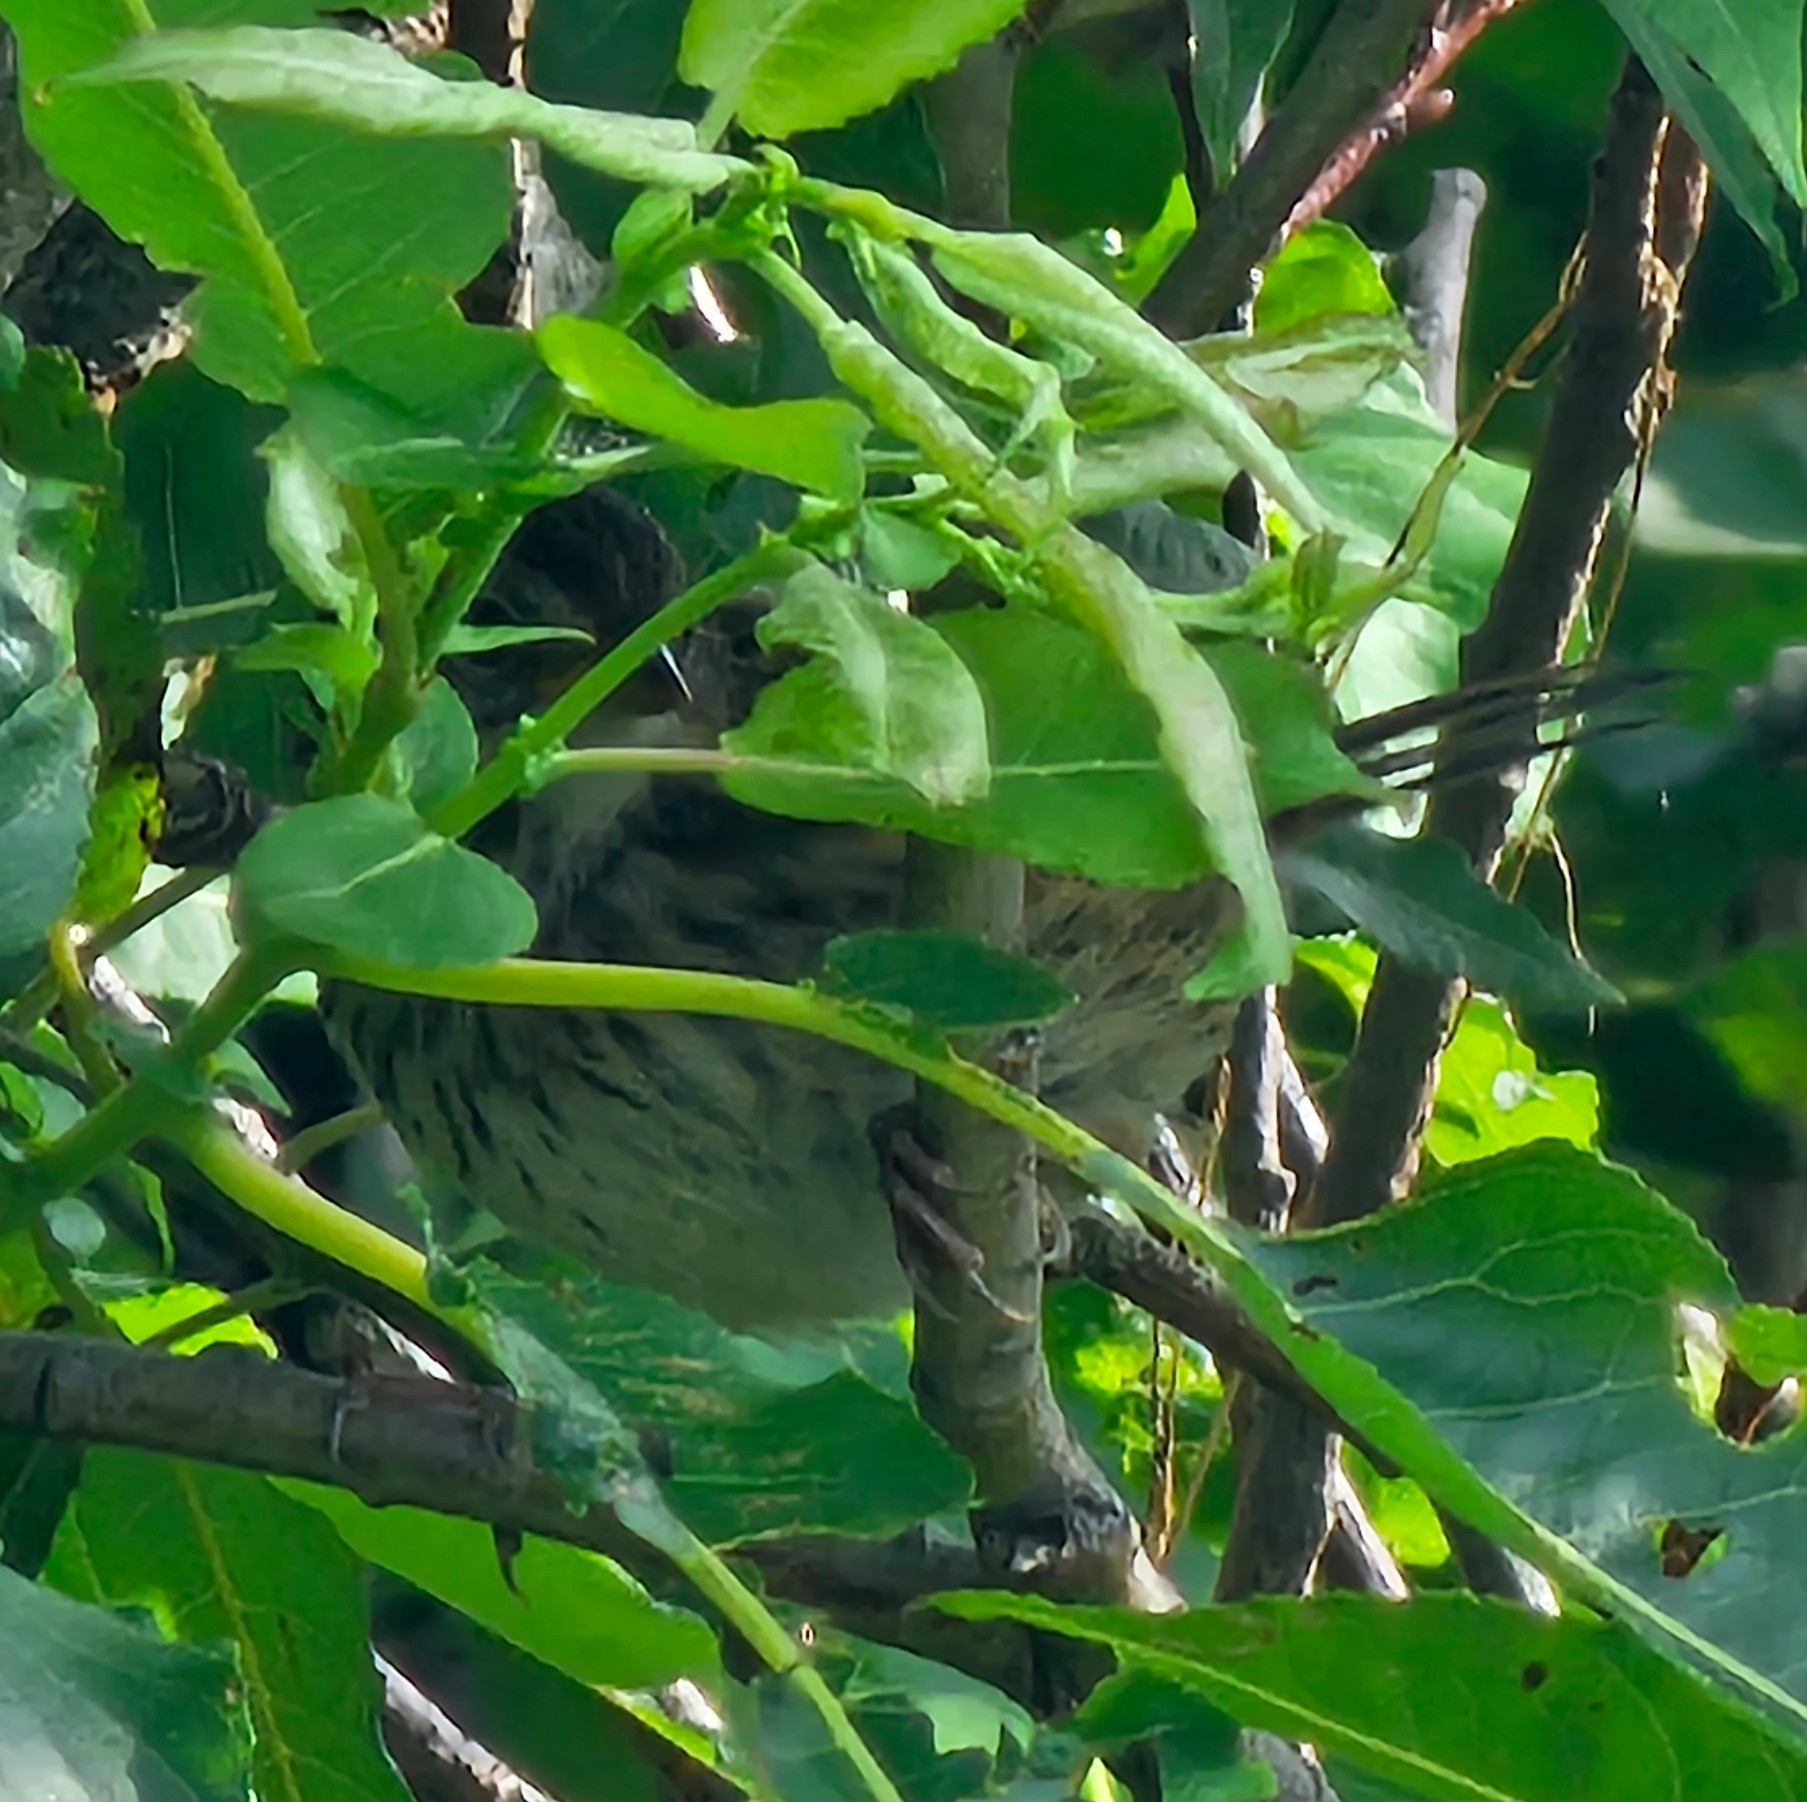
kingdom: Animalia
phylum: Chordata
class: Aves
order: Passeriformes
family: Passerellidae
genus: Melospiza
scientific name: Melospiza lincolnii
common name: Lincoln's sparrow
